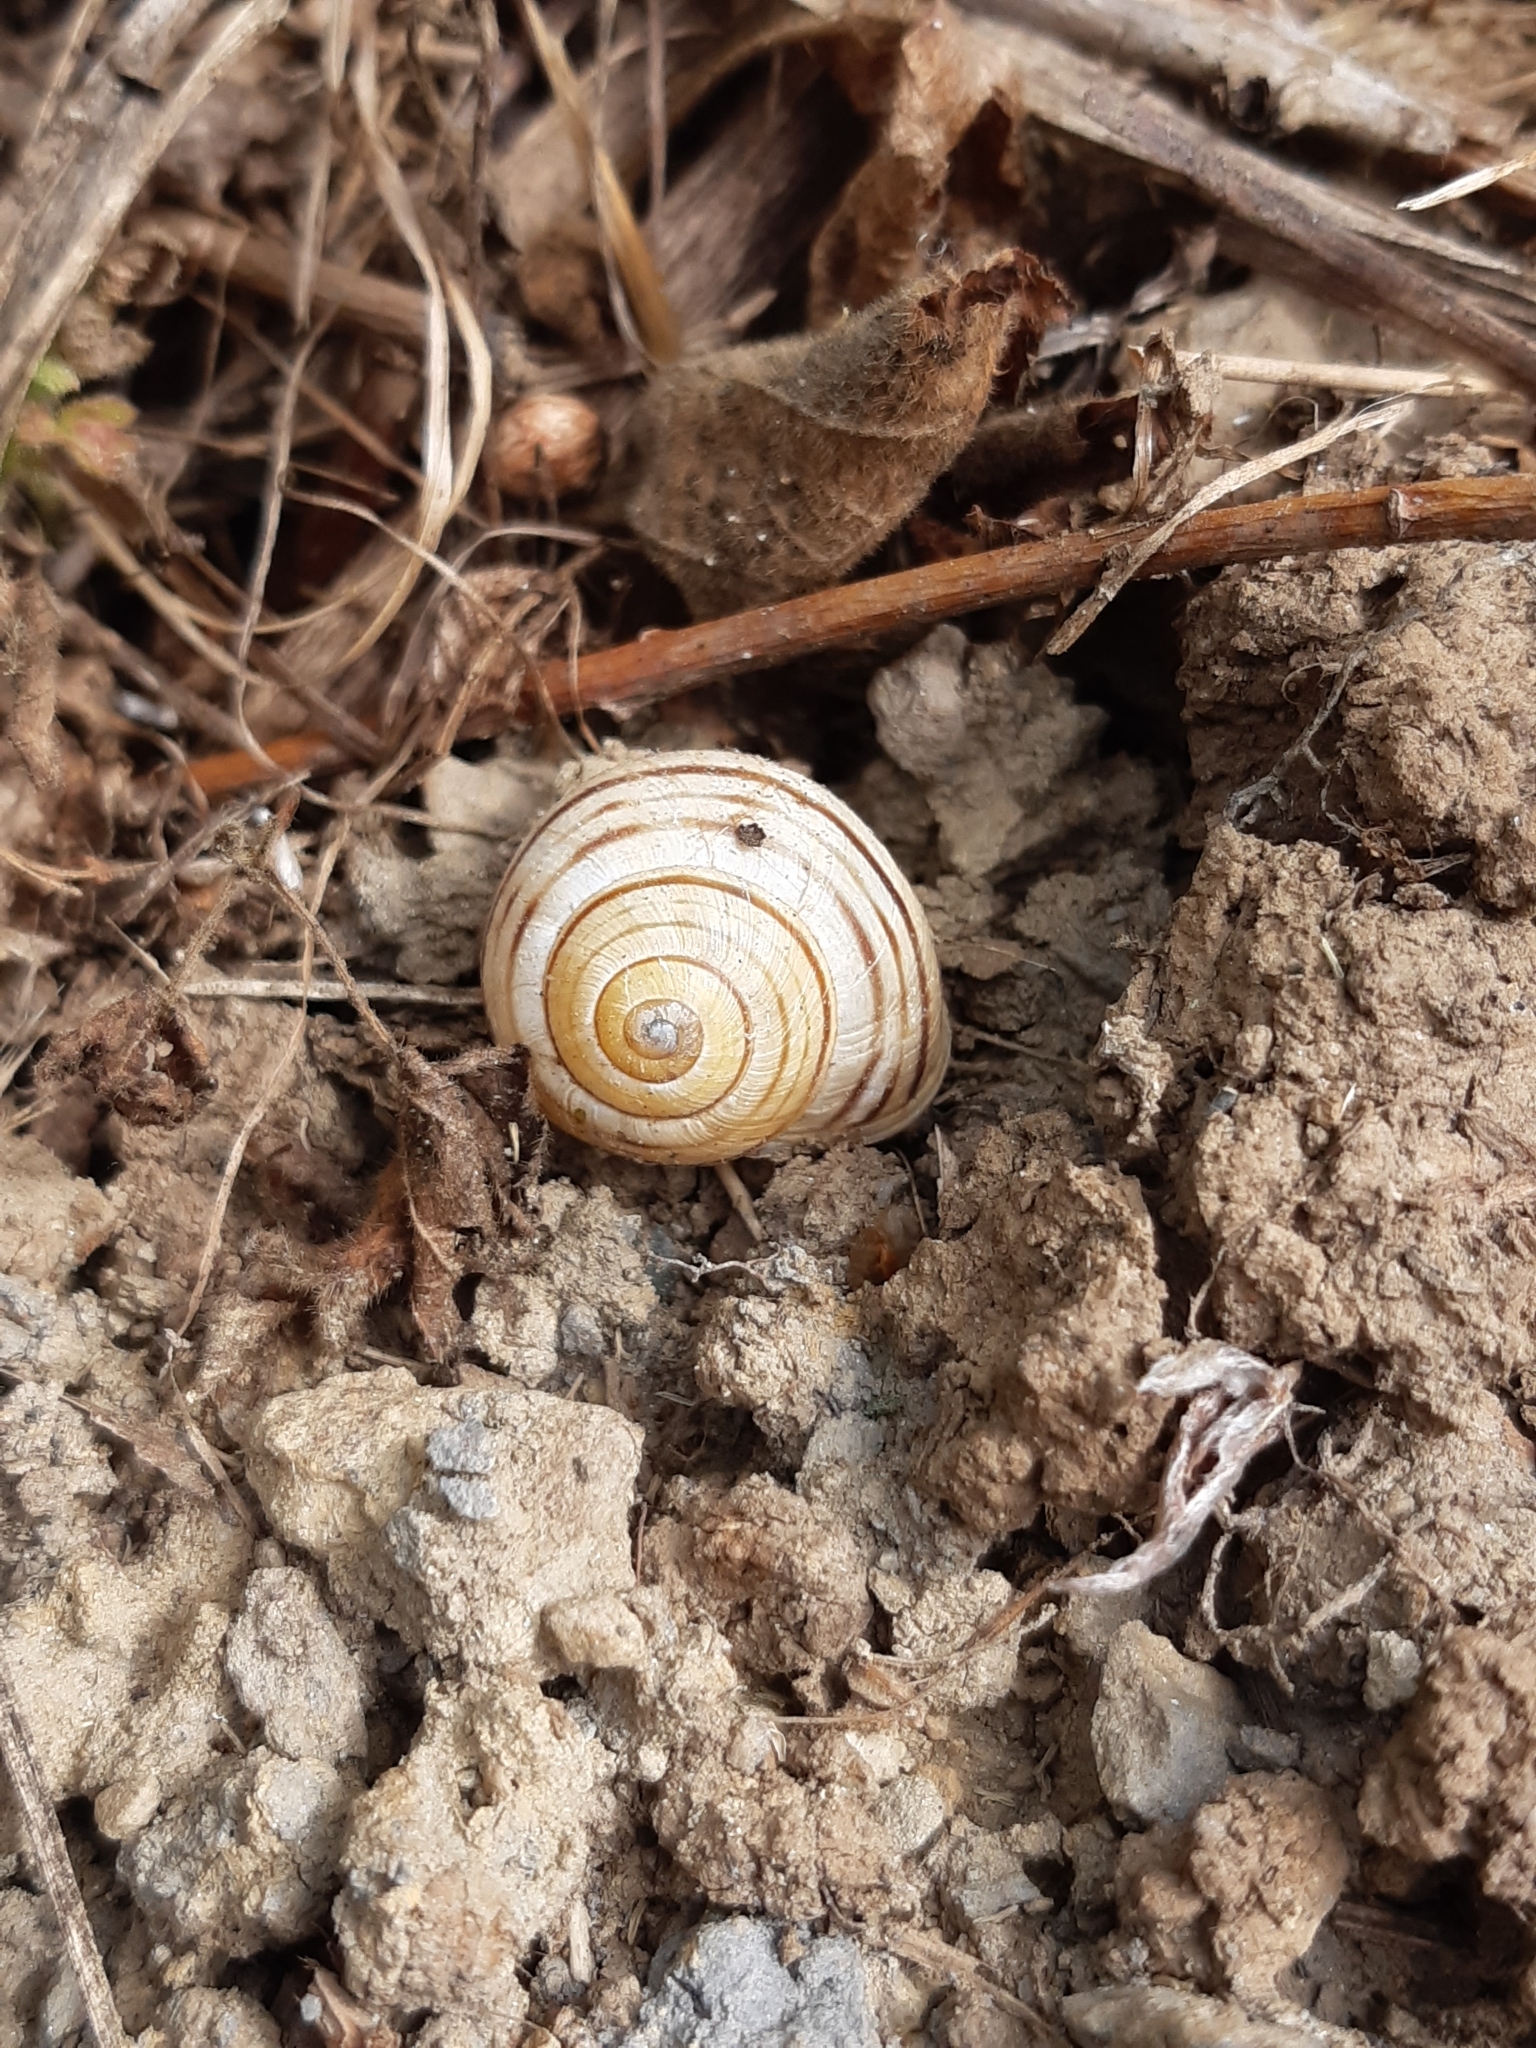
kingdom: Animalia
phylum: Mollusca
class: Gastropoda
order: Stylommatophora
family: Helicidae
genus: Cepaea
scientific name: Cepaea hortensis
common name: White-lip gardensnail
